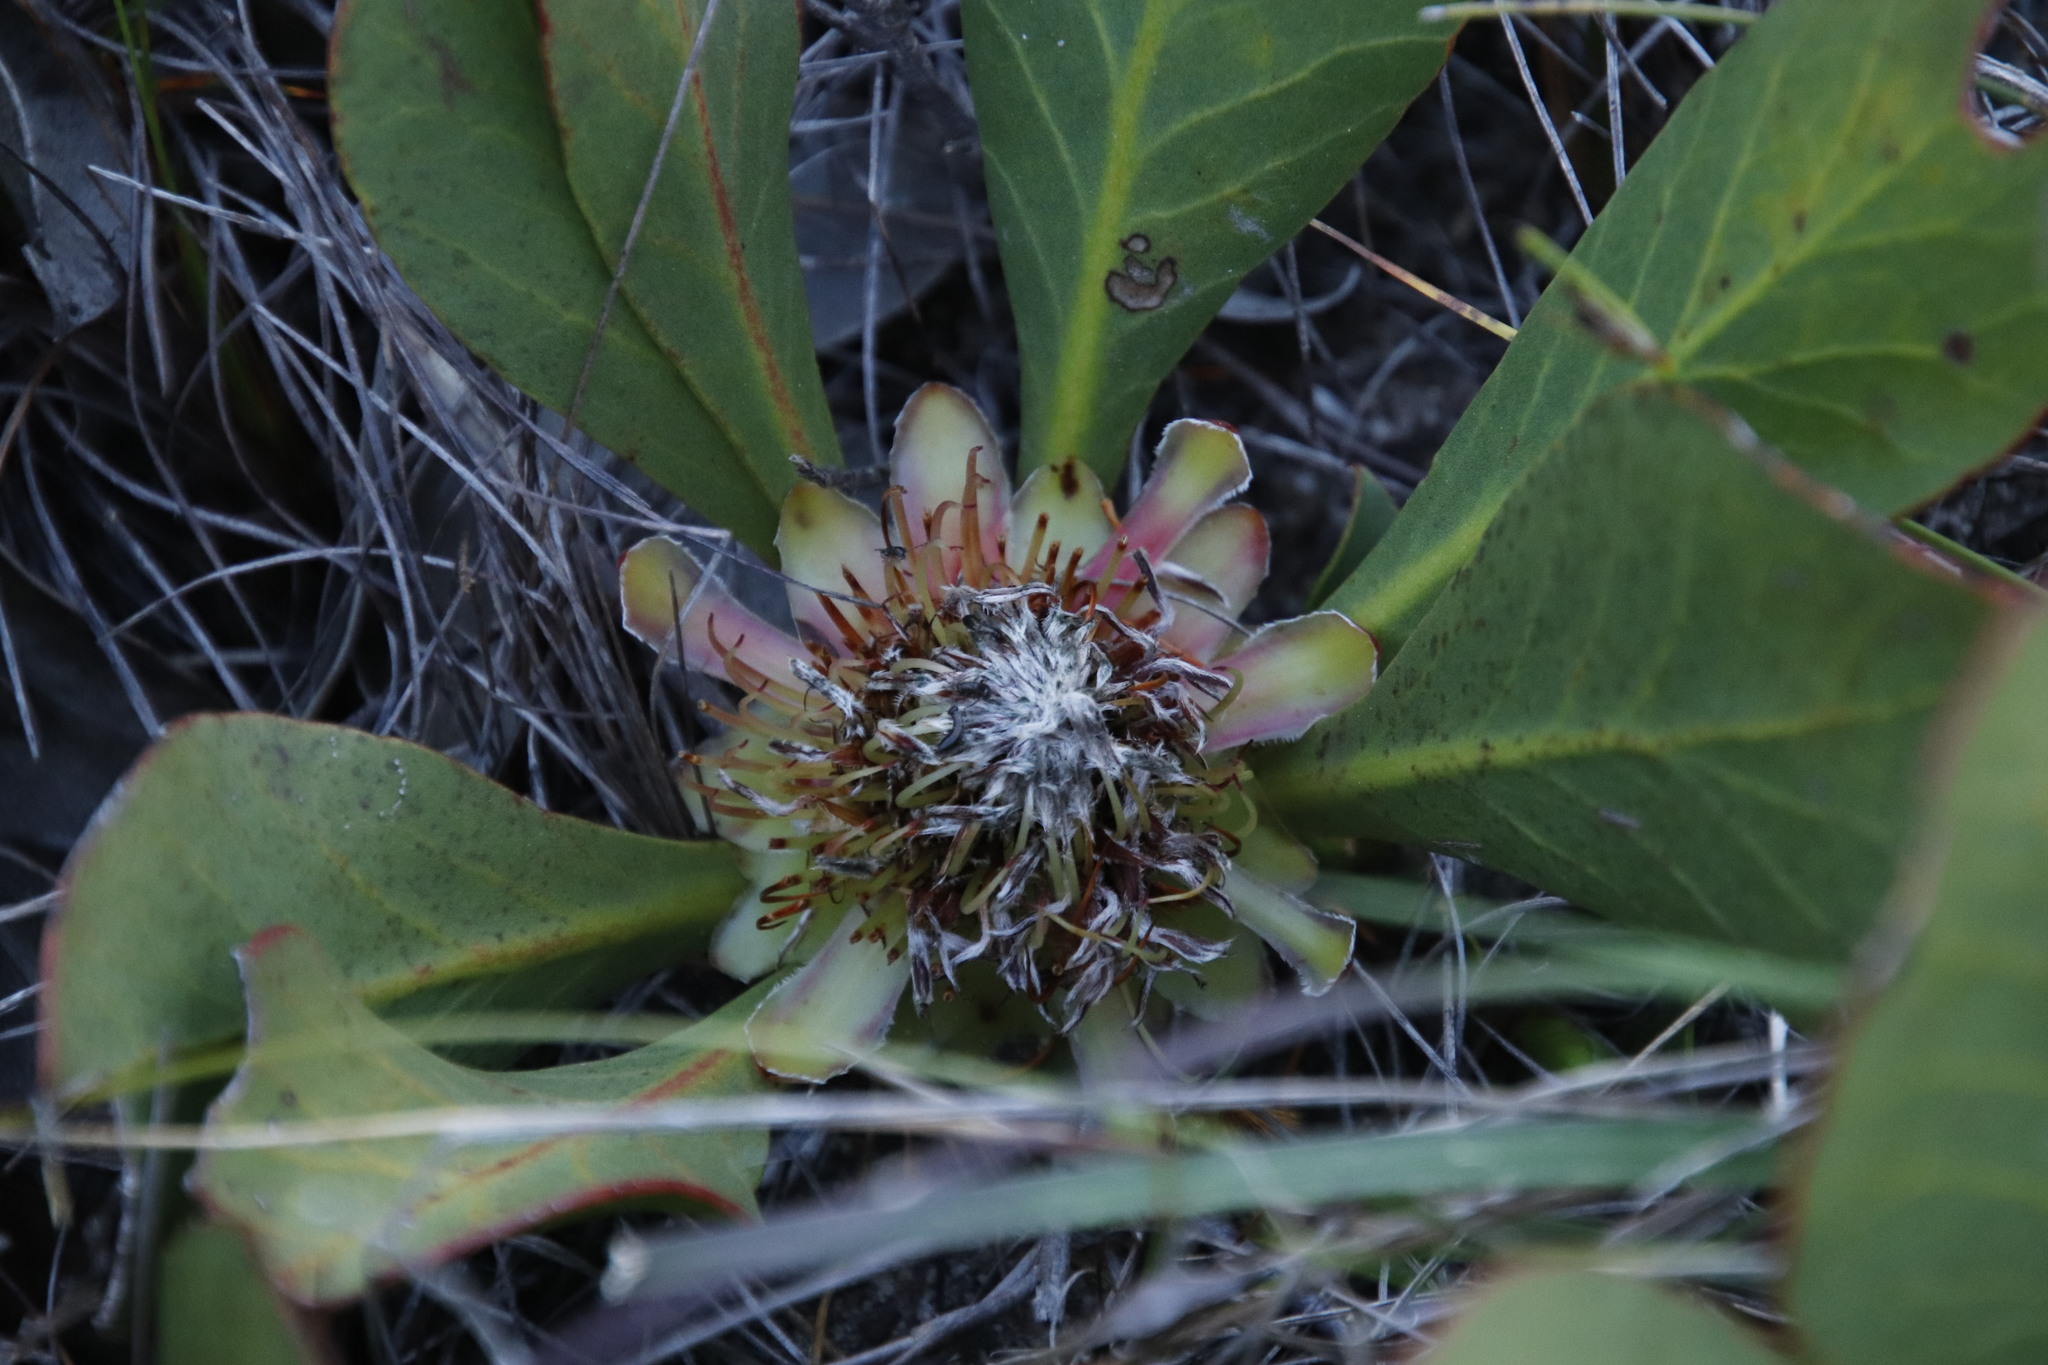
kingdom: Plantae
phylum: Tracheophyta
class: Magnoliopsida
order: Proteales
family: Proteaceae
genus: Protea
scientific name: Protea acaulos
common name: Common ground sugarbush
